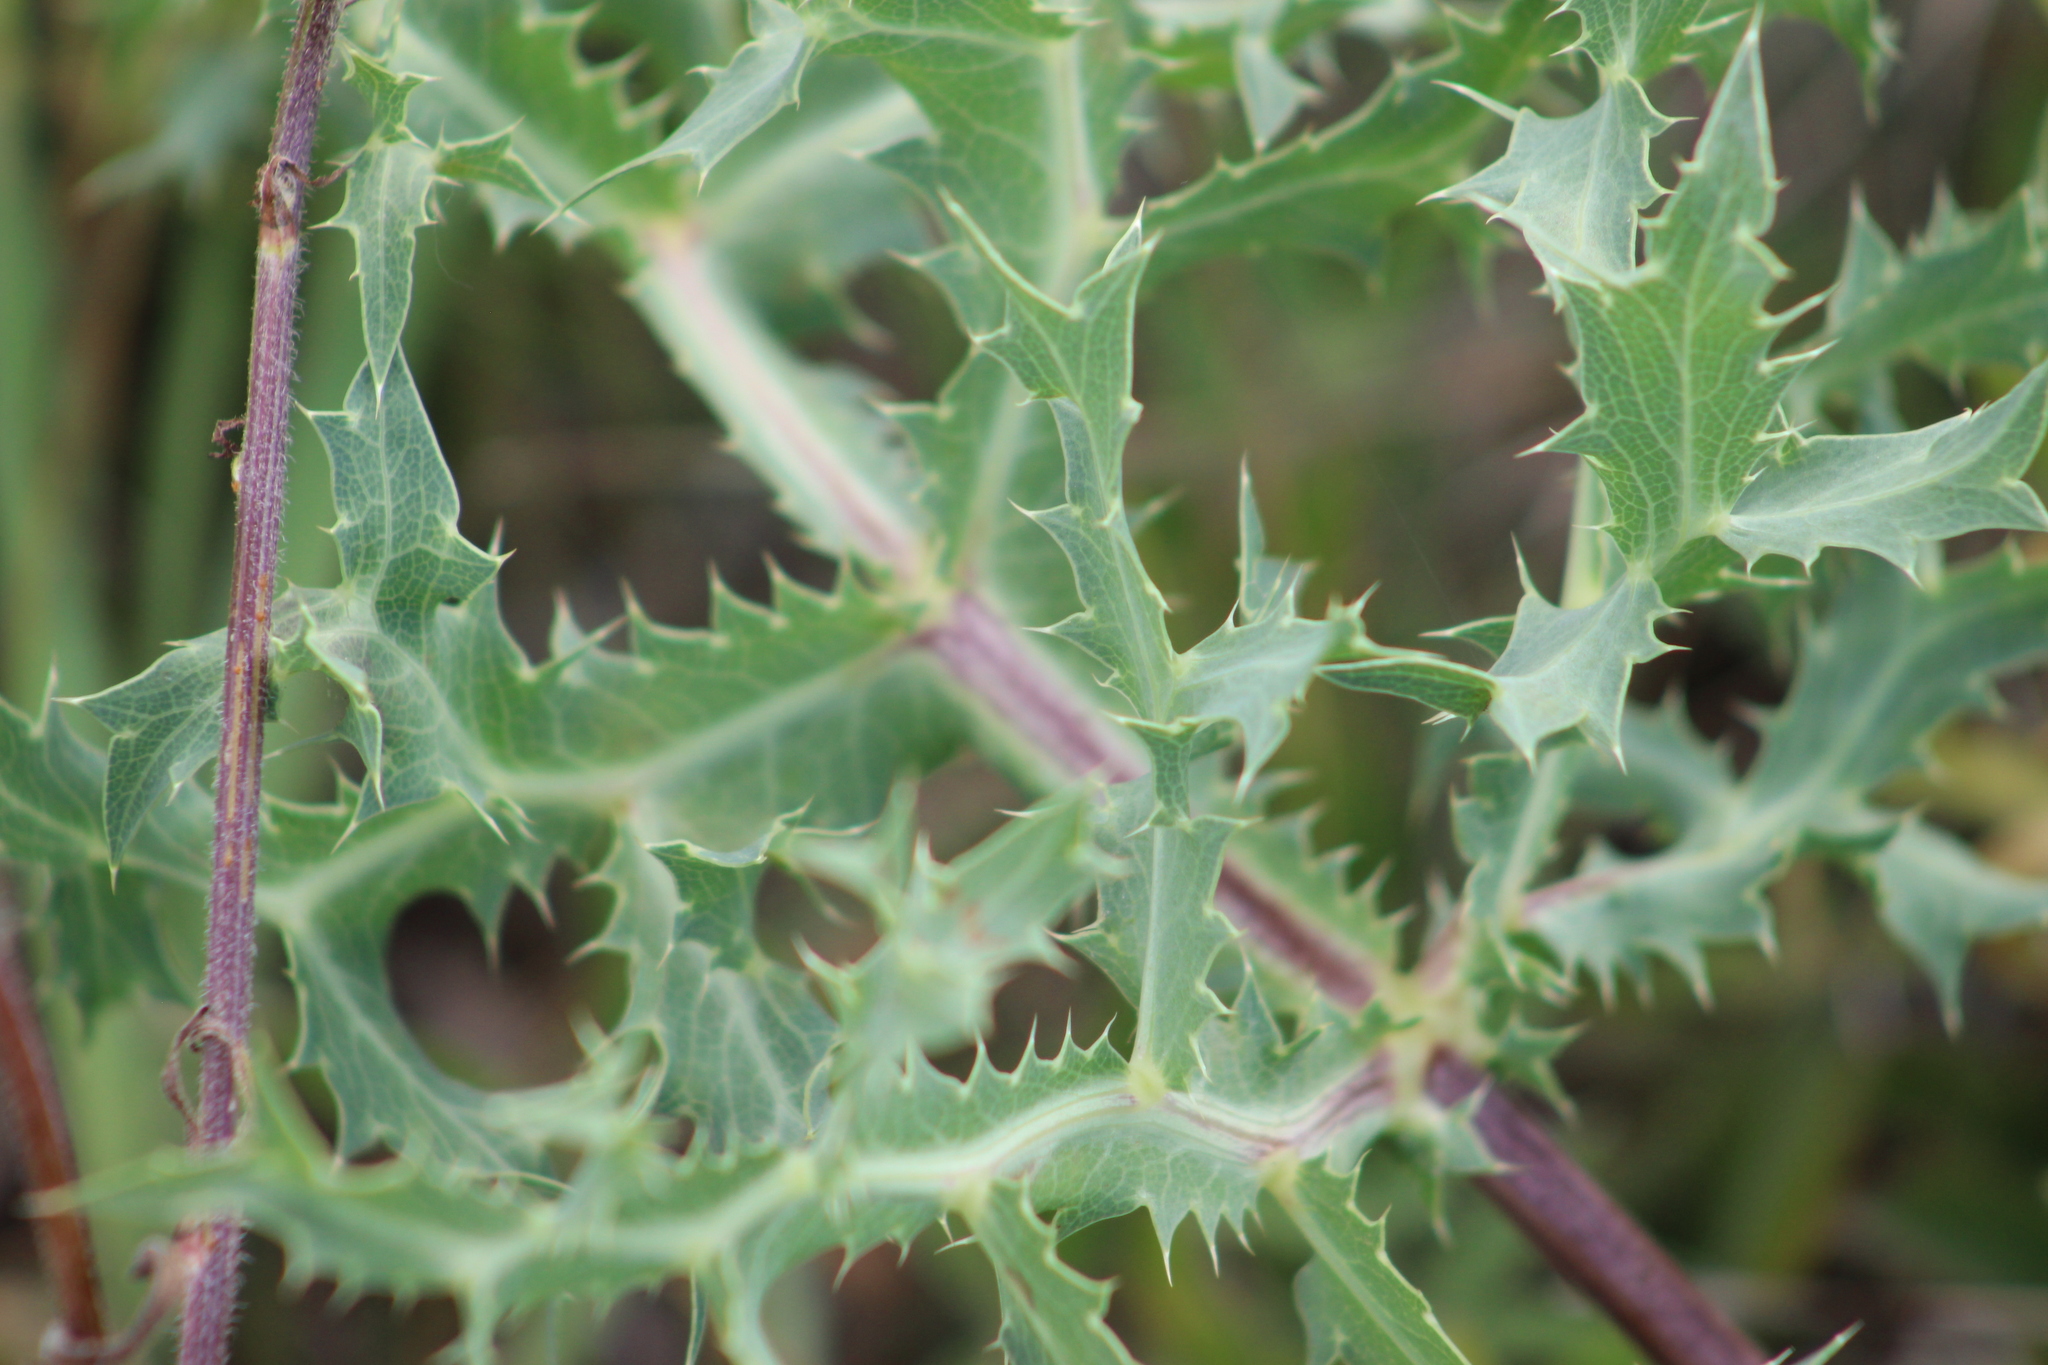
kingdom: Plantae
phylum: Tracheophyta
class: Magnoliopsida
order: Apiales
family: Apiaceae
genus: Eryngium
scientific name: Eryngium campestre
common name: Field eryngo
